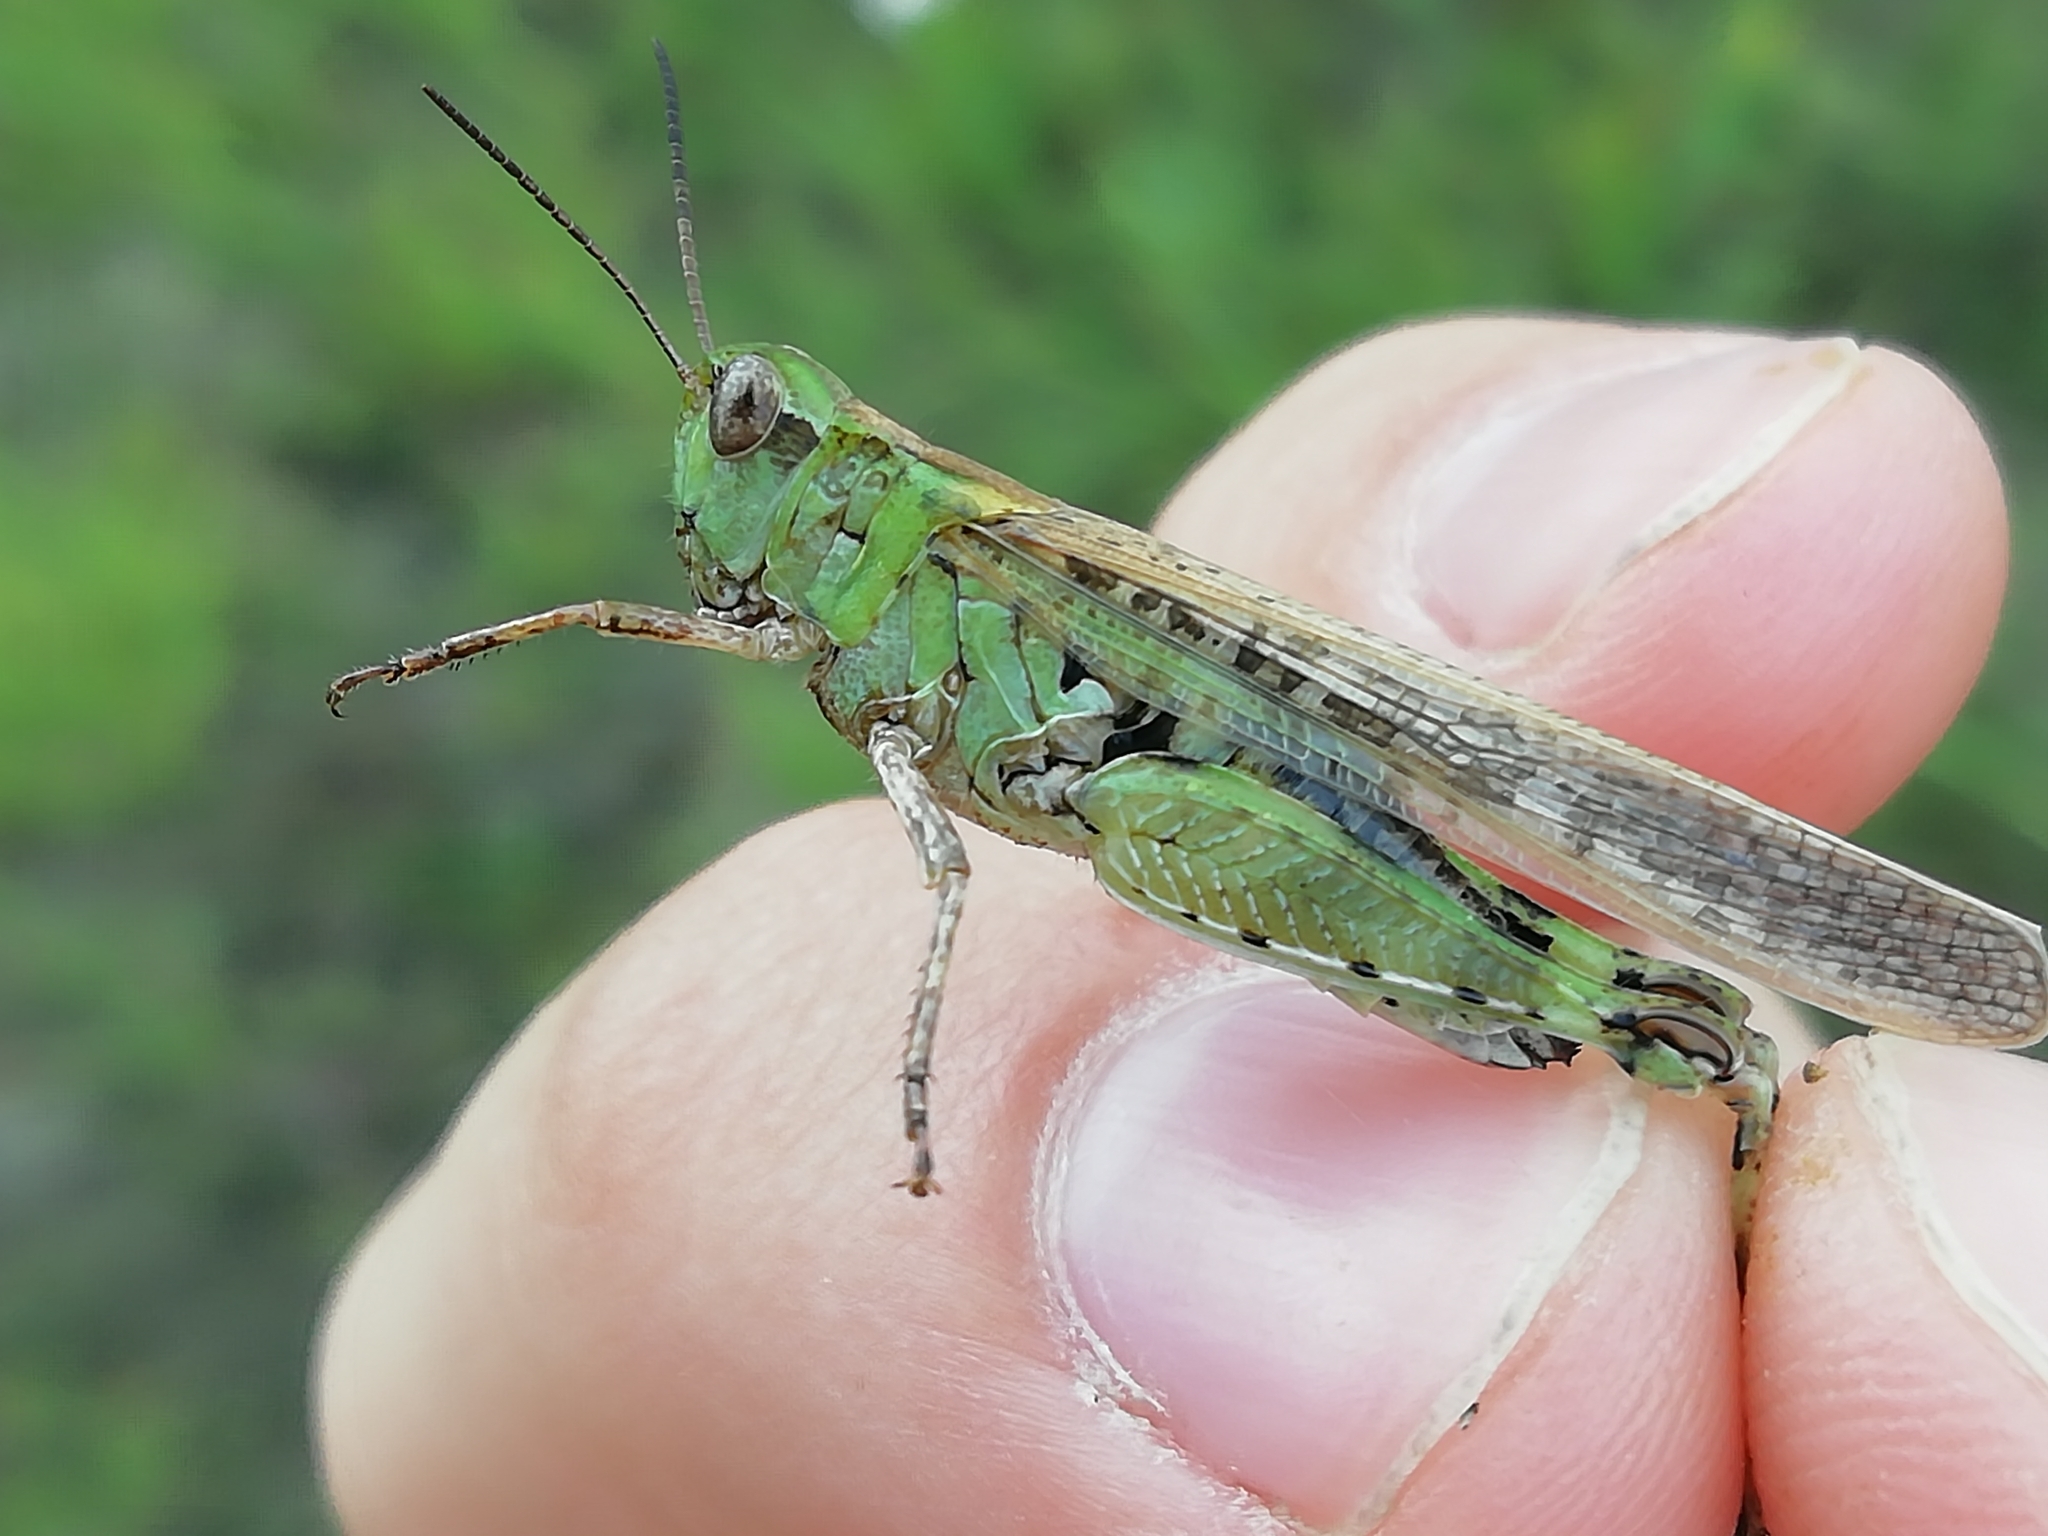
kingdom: Animalia
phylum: Arthropoda
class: Insecta
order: Orthoptera
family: Acrididae
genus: Aiolopus
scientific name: Aiolopus thalassinus
